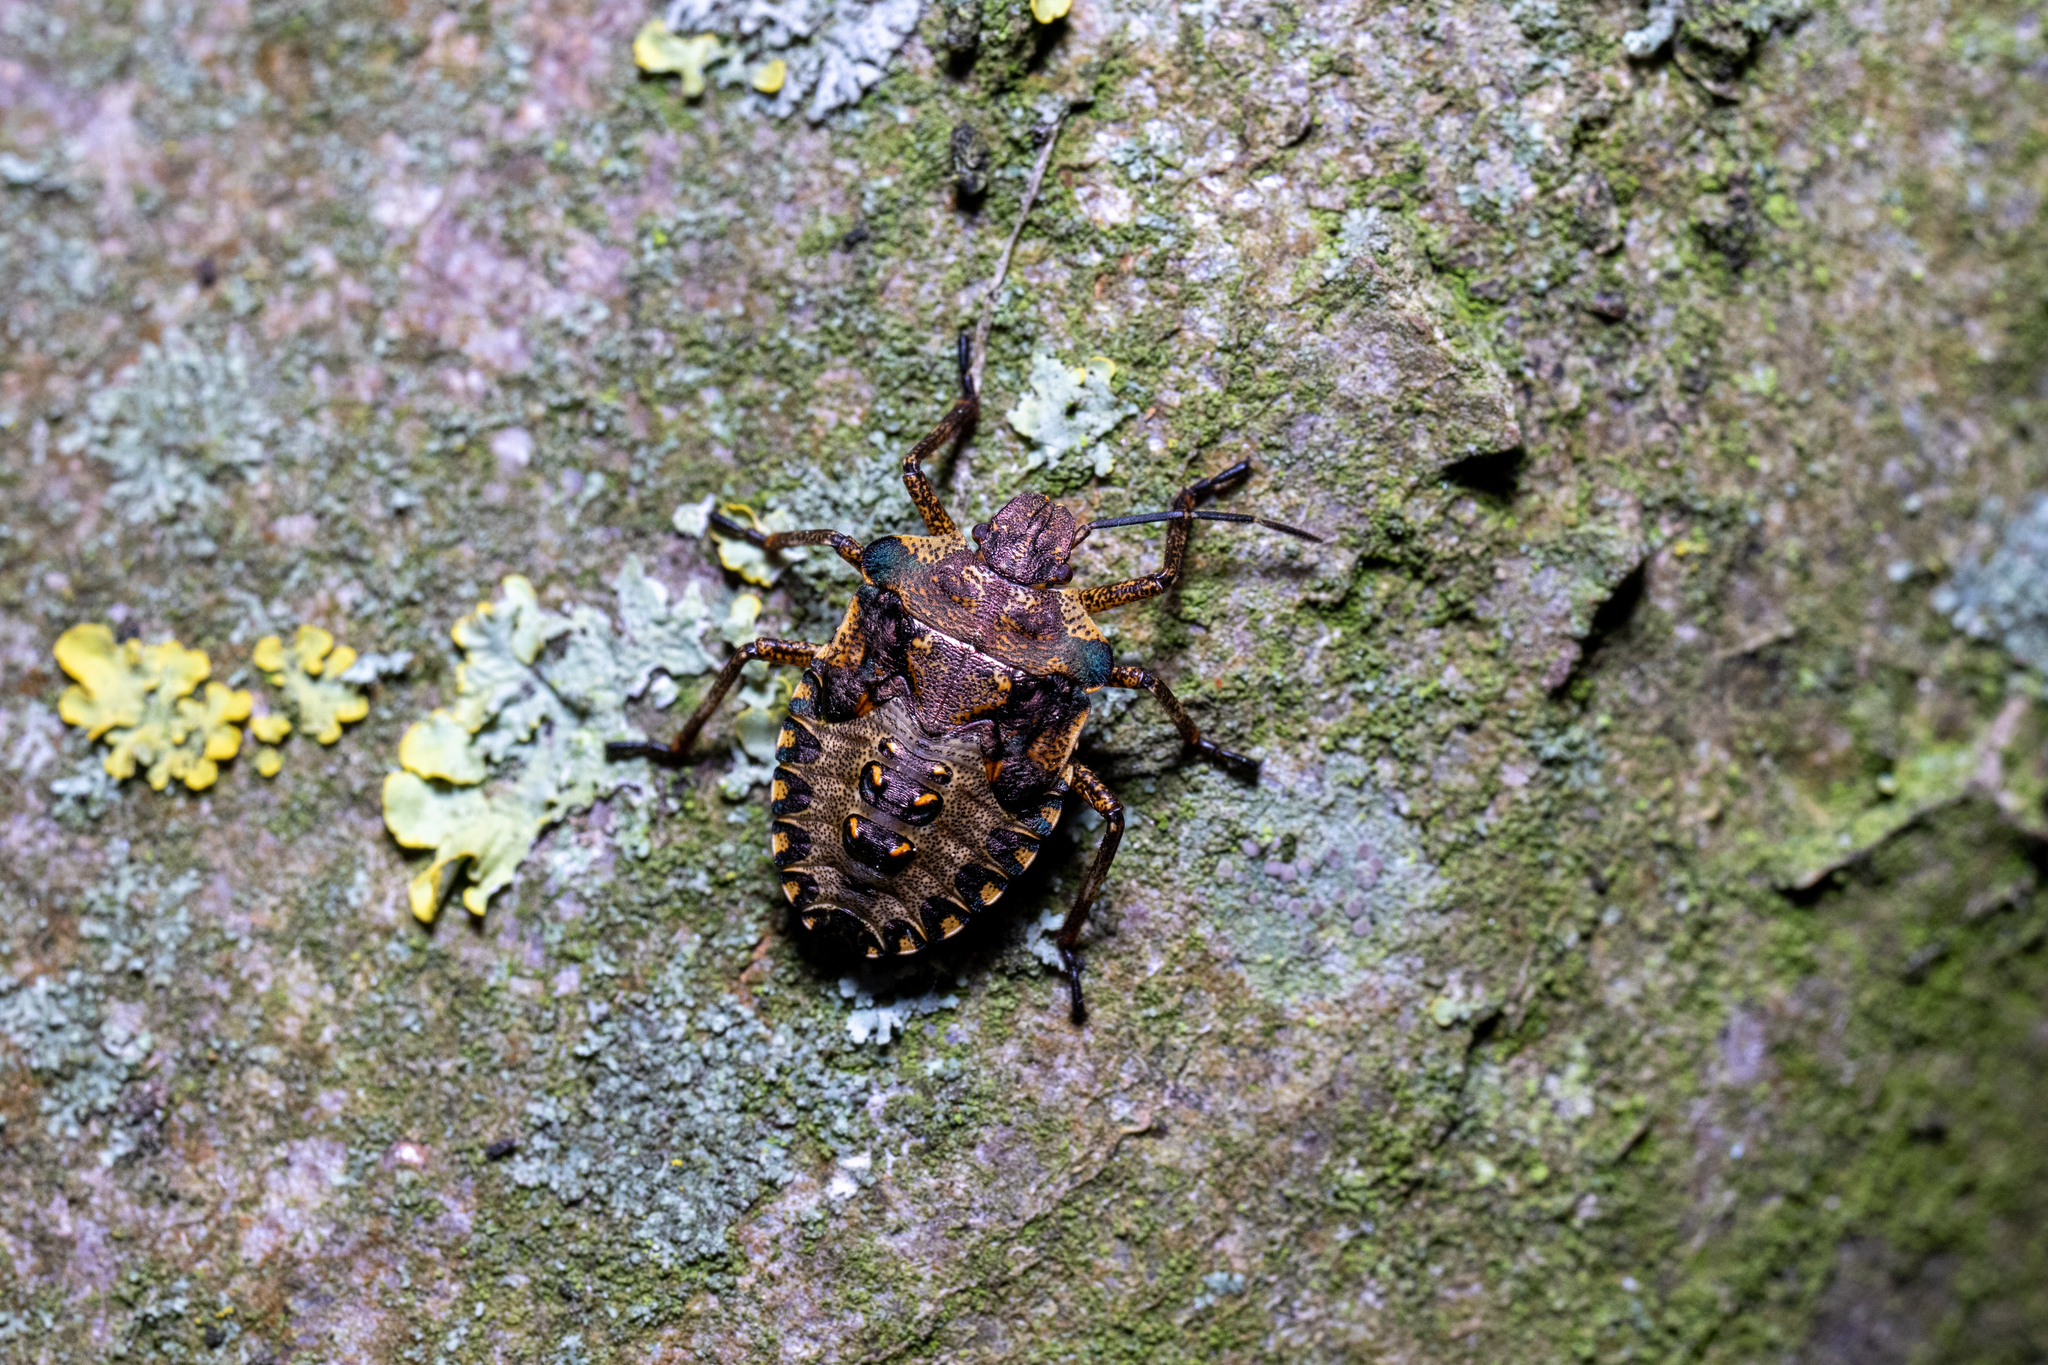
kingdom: Animalia
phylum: Arthropoda
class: Insecta
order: Hemiptera
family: Pentatomidae
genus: Pentatoma
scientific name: Pentatoma rufipes
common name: Forest bug
